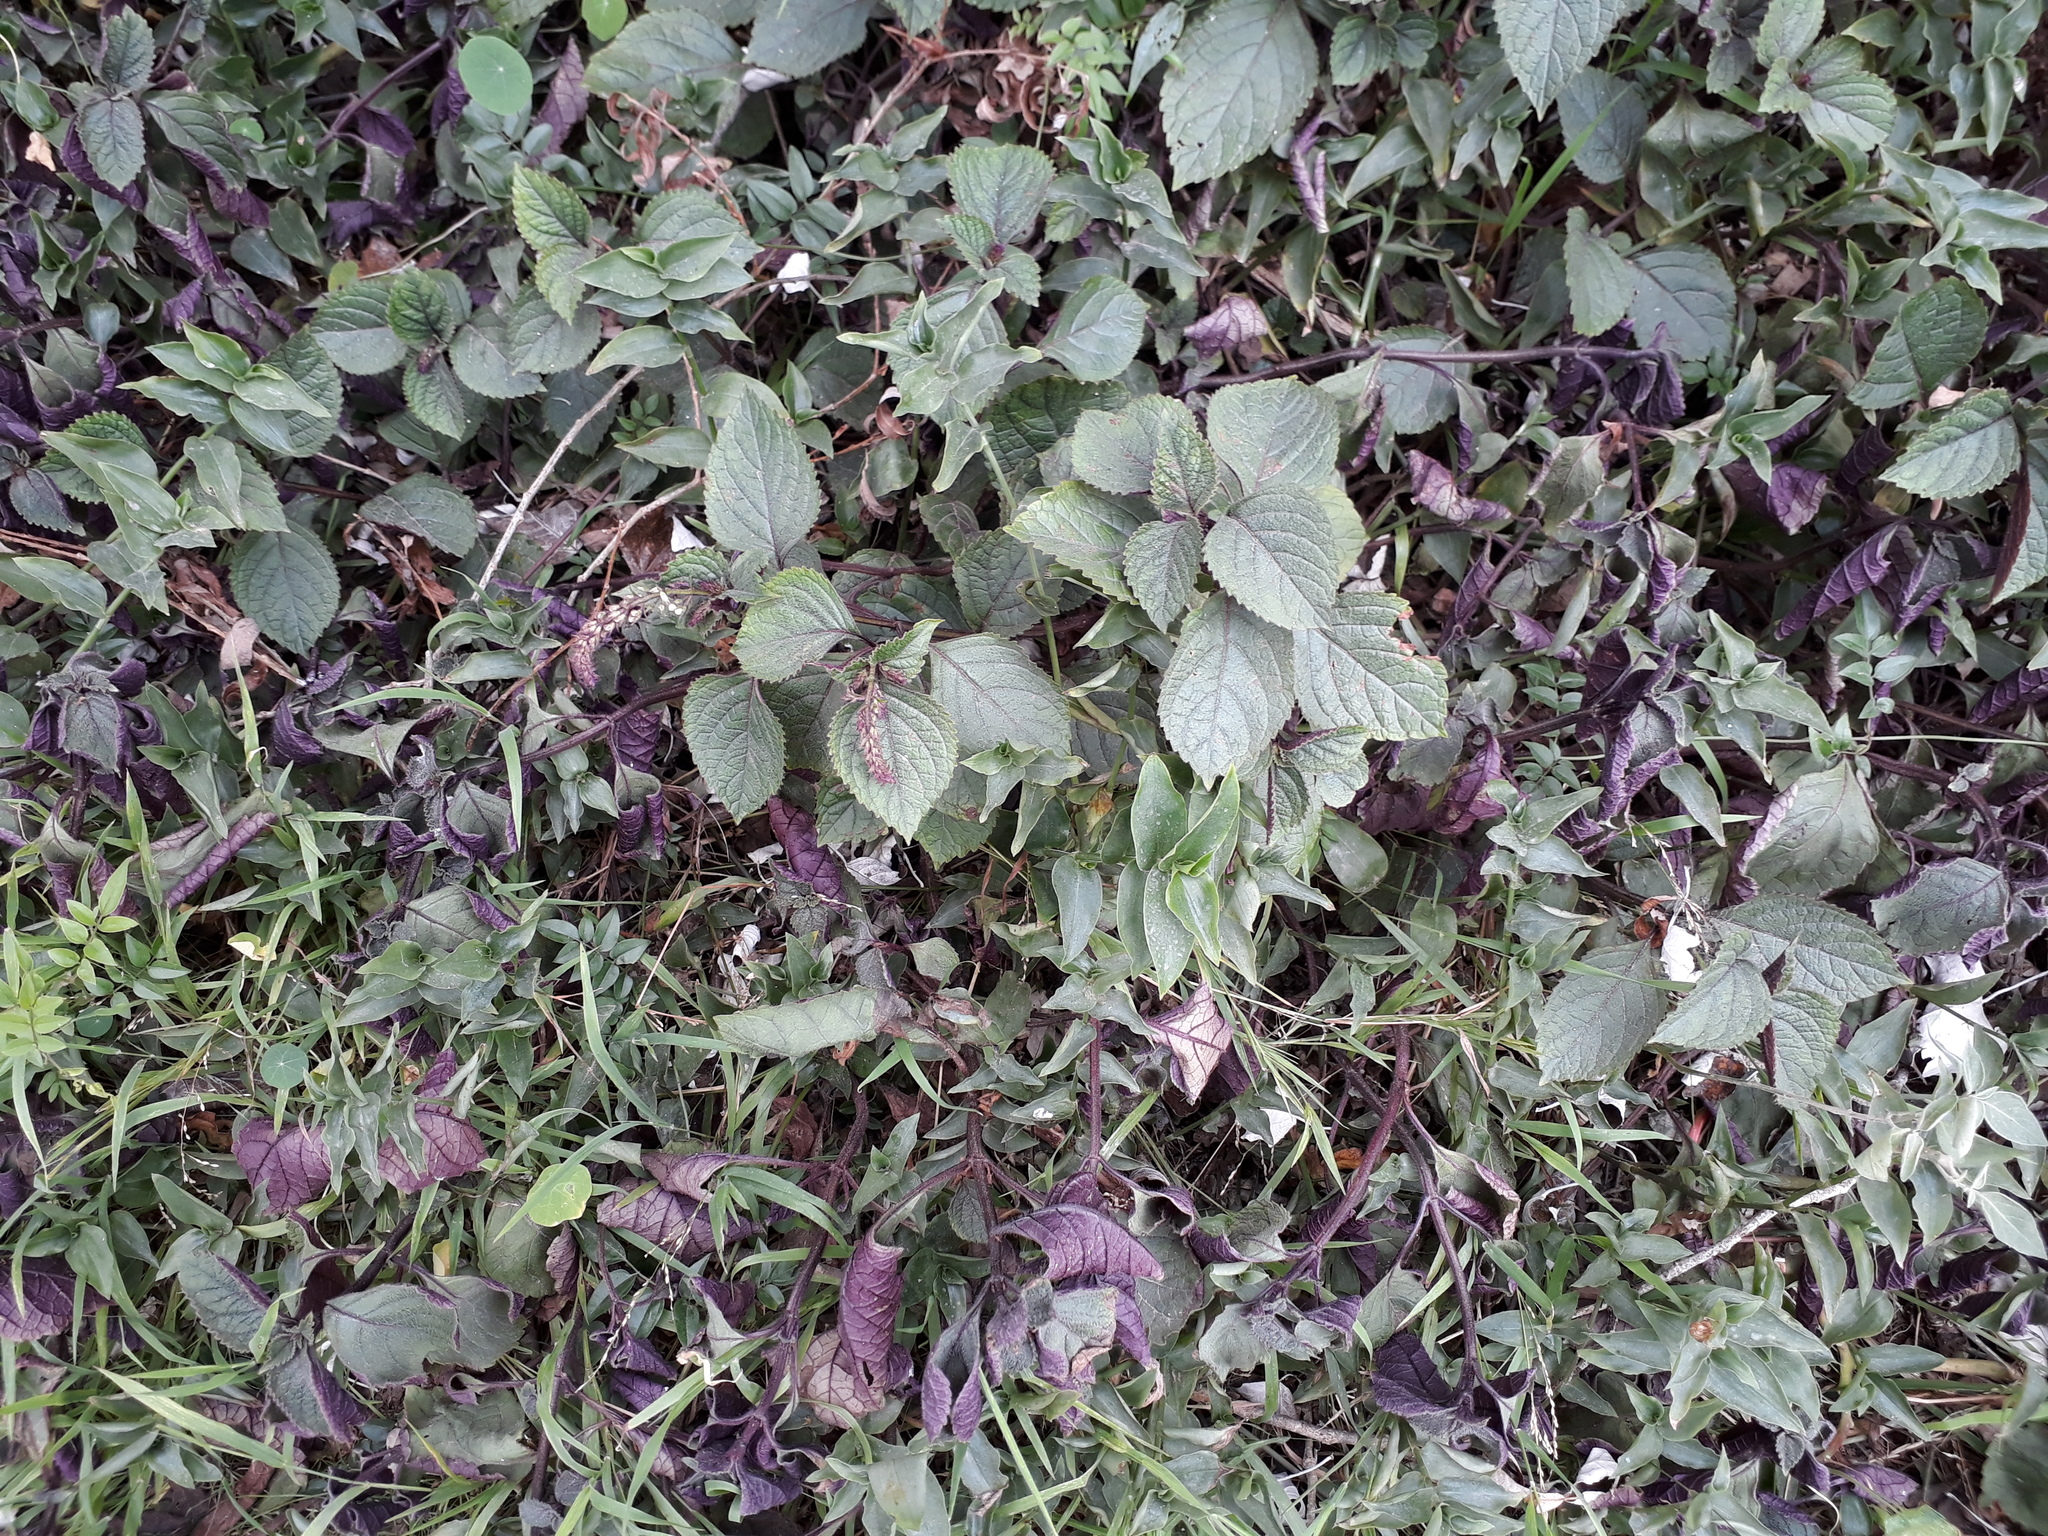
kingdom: Plantae
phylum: Tracheophyta
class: Magnoliopsida
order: Lamiales
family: Lamiaceae
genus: Plectranthus
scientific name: Plectranthus ciliatus
